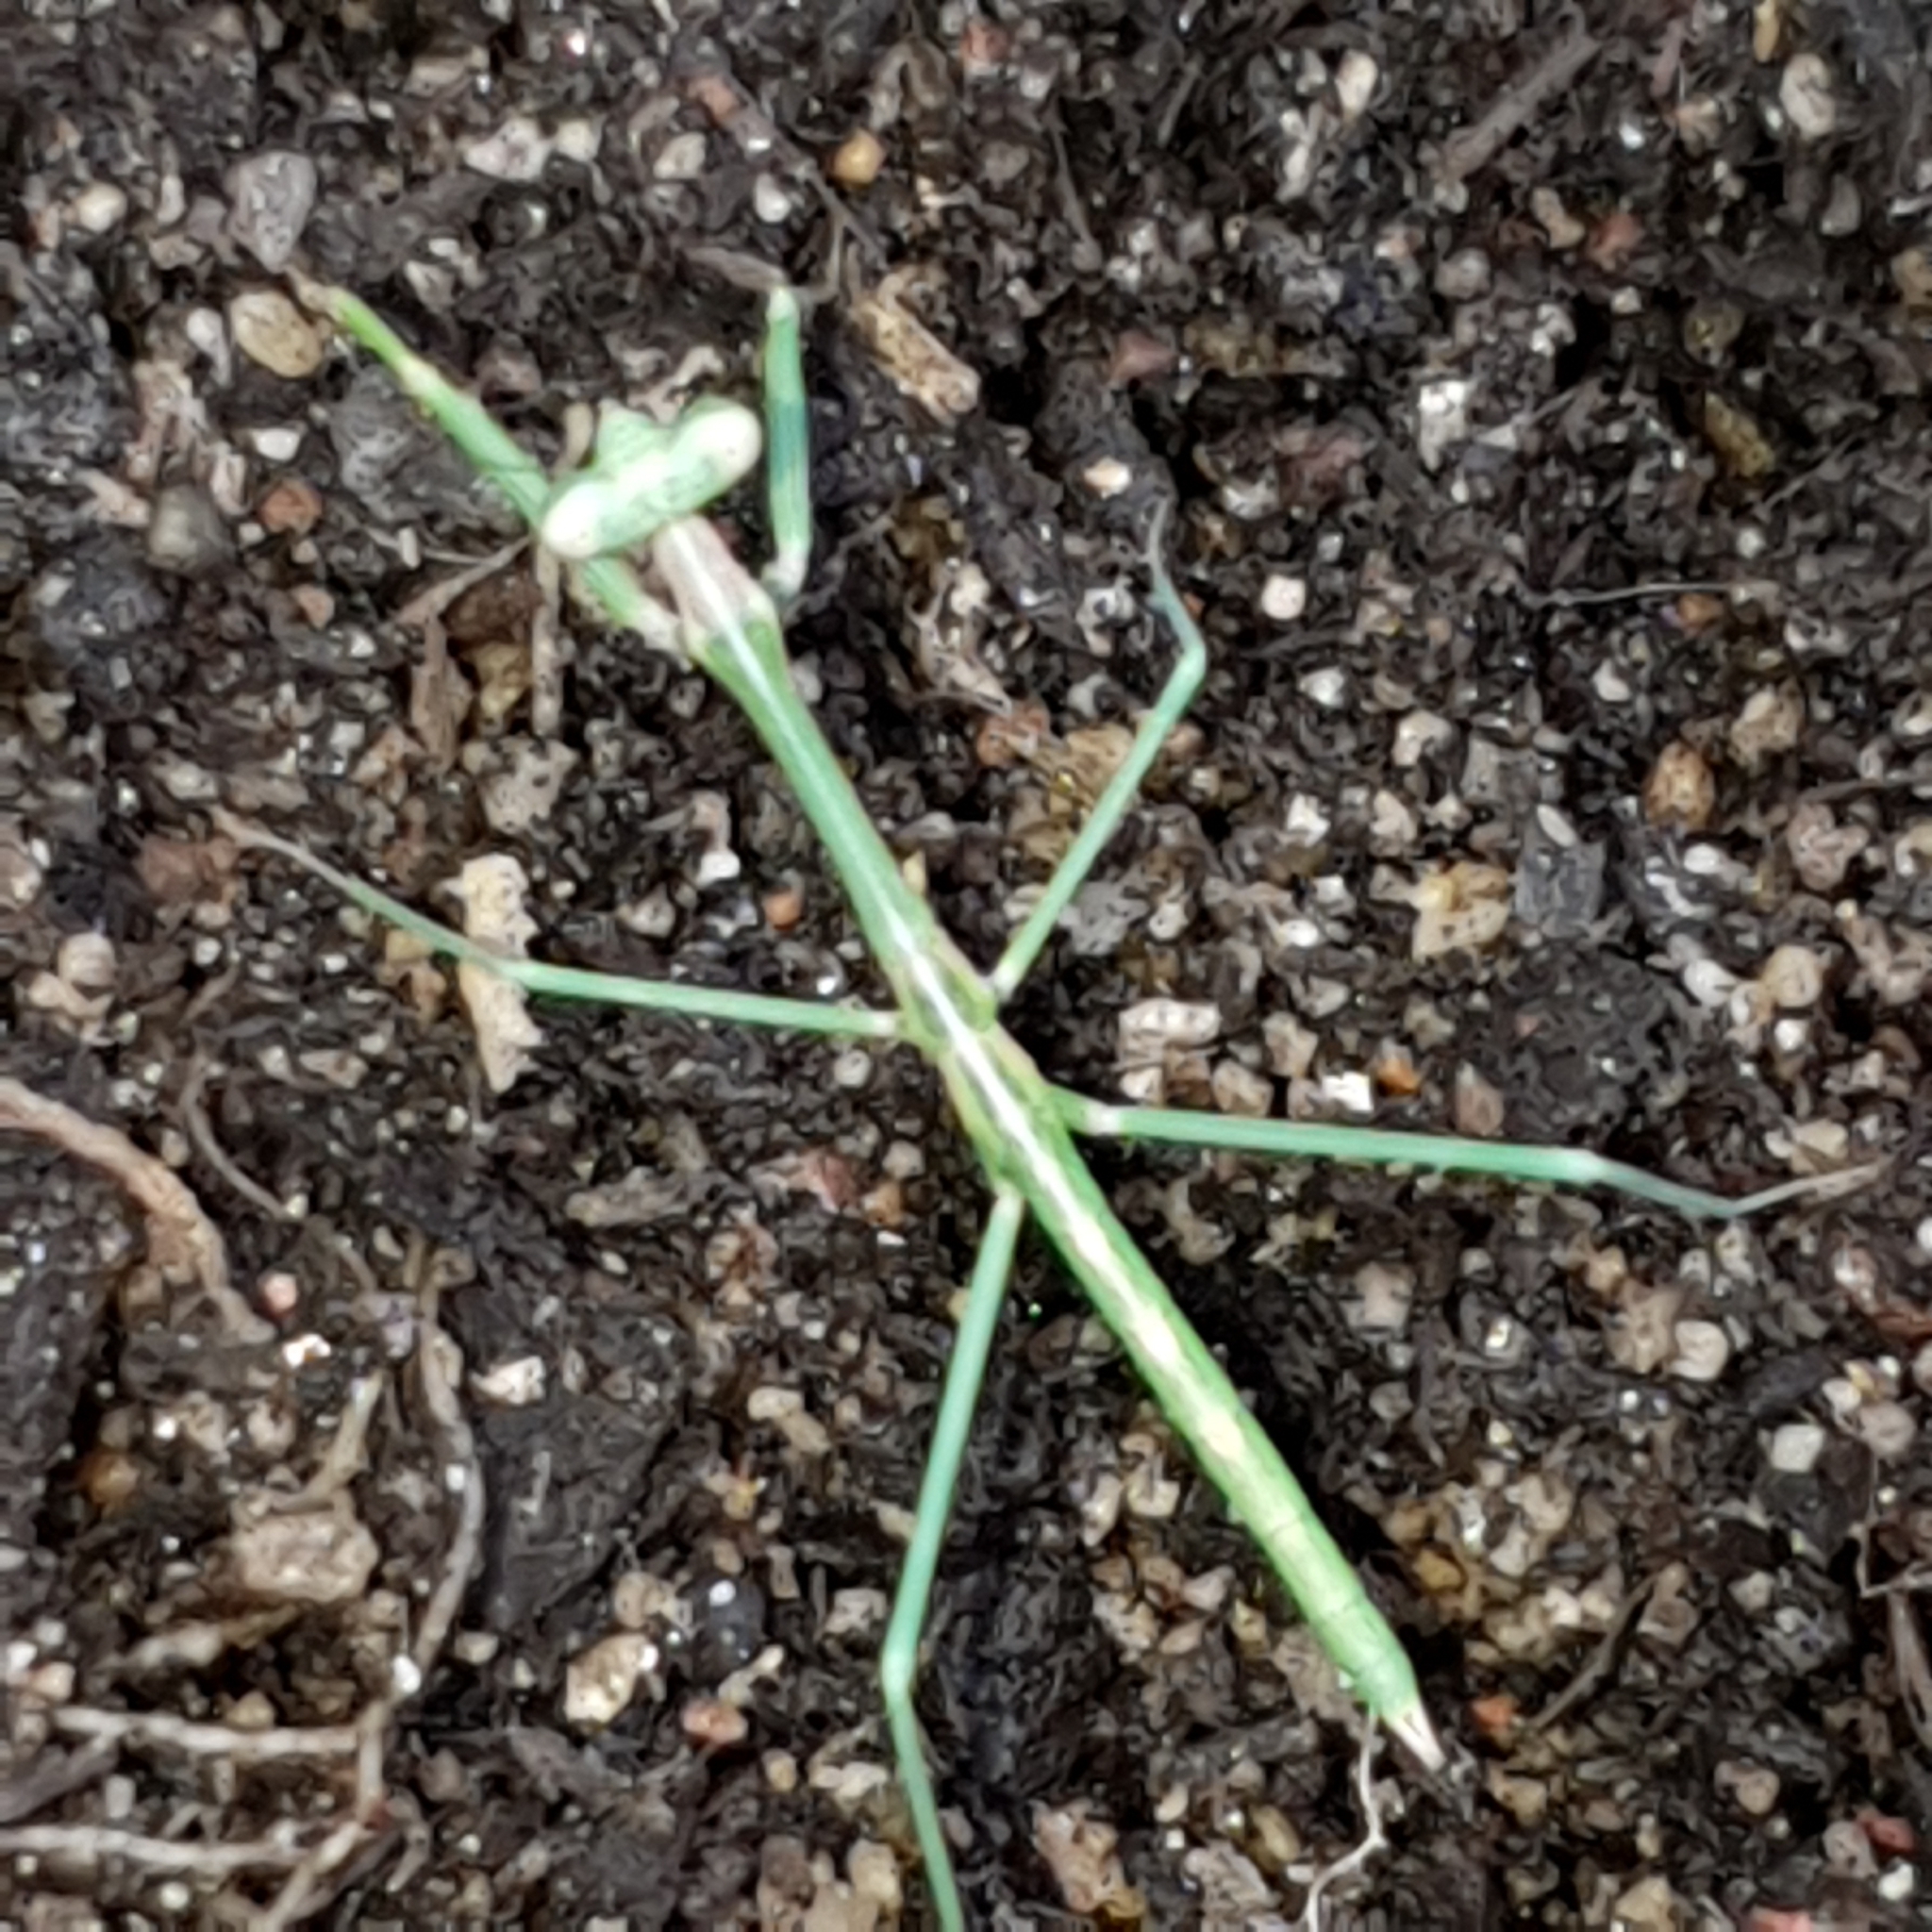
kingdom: Animalia
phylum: Arthropoda
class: Insecta
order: Mantodea
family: Mantidae
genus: Archimantis
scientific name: Archimantis latistyla
